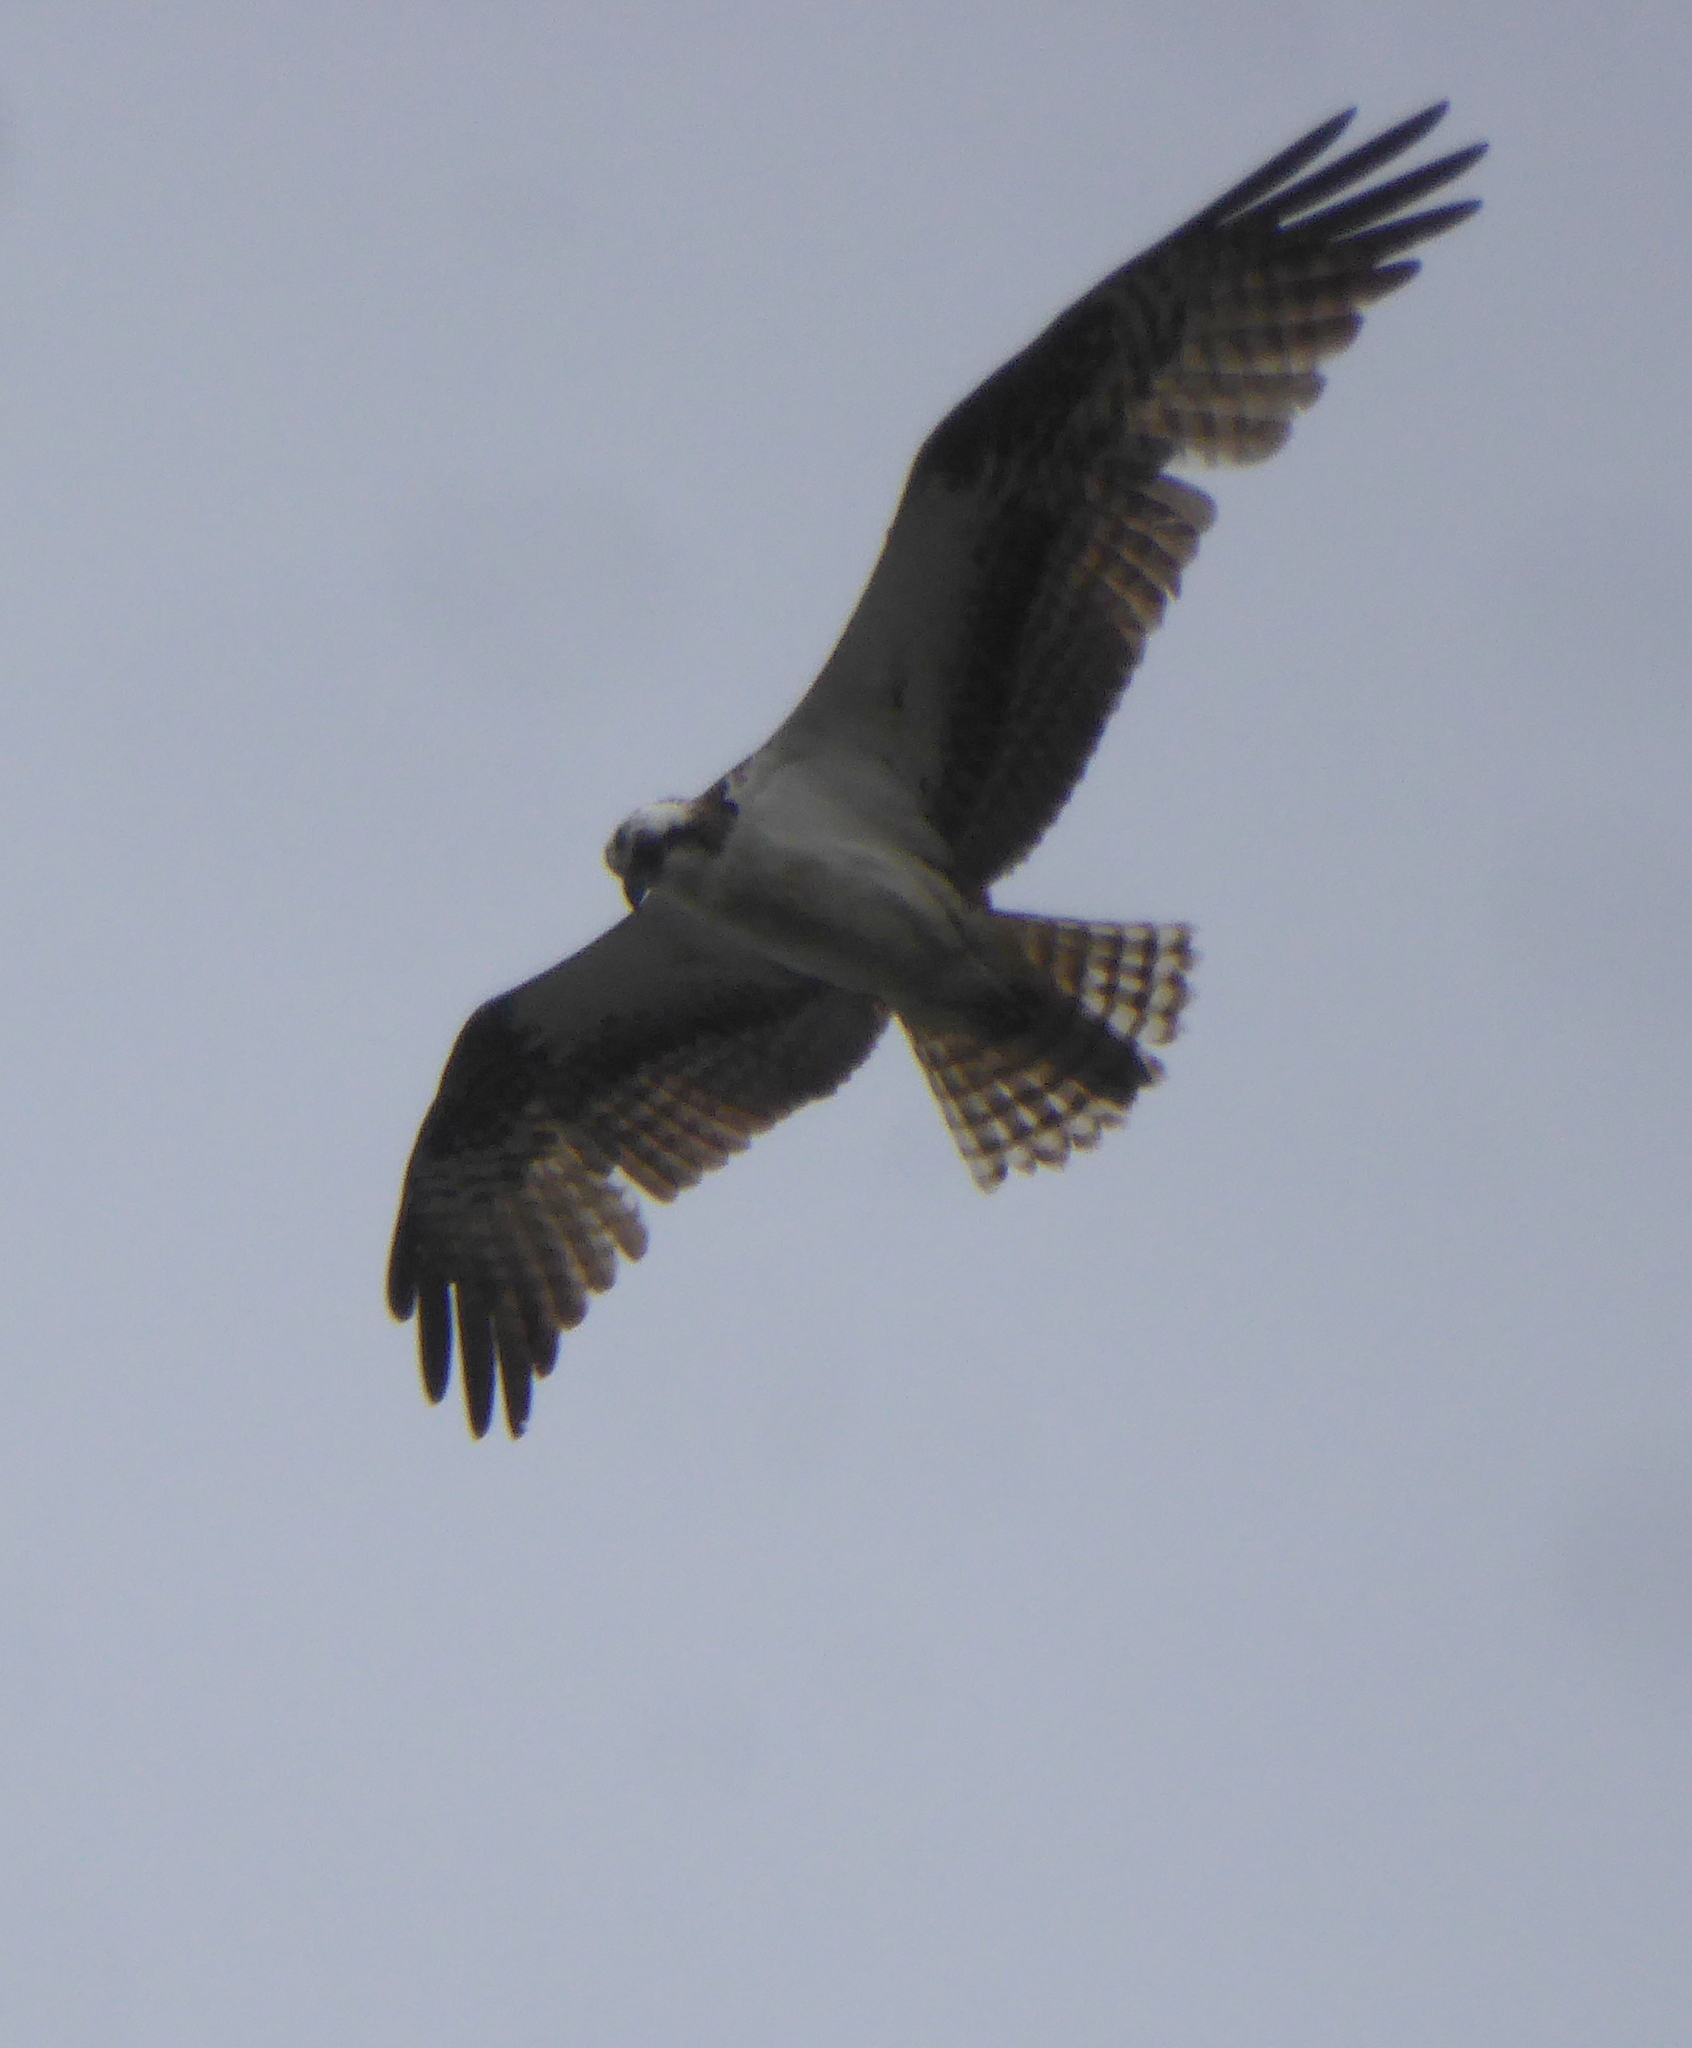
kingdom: Animalia
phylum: Chordata
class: Aves
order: Accipitriformes
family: Pandionidae
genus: Pandion
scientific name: Pandion haliaetus
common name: Osprey
